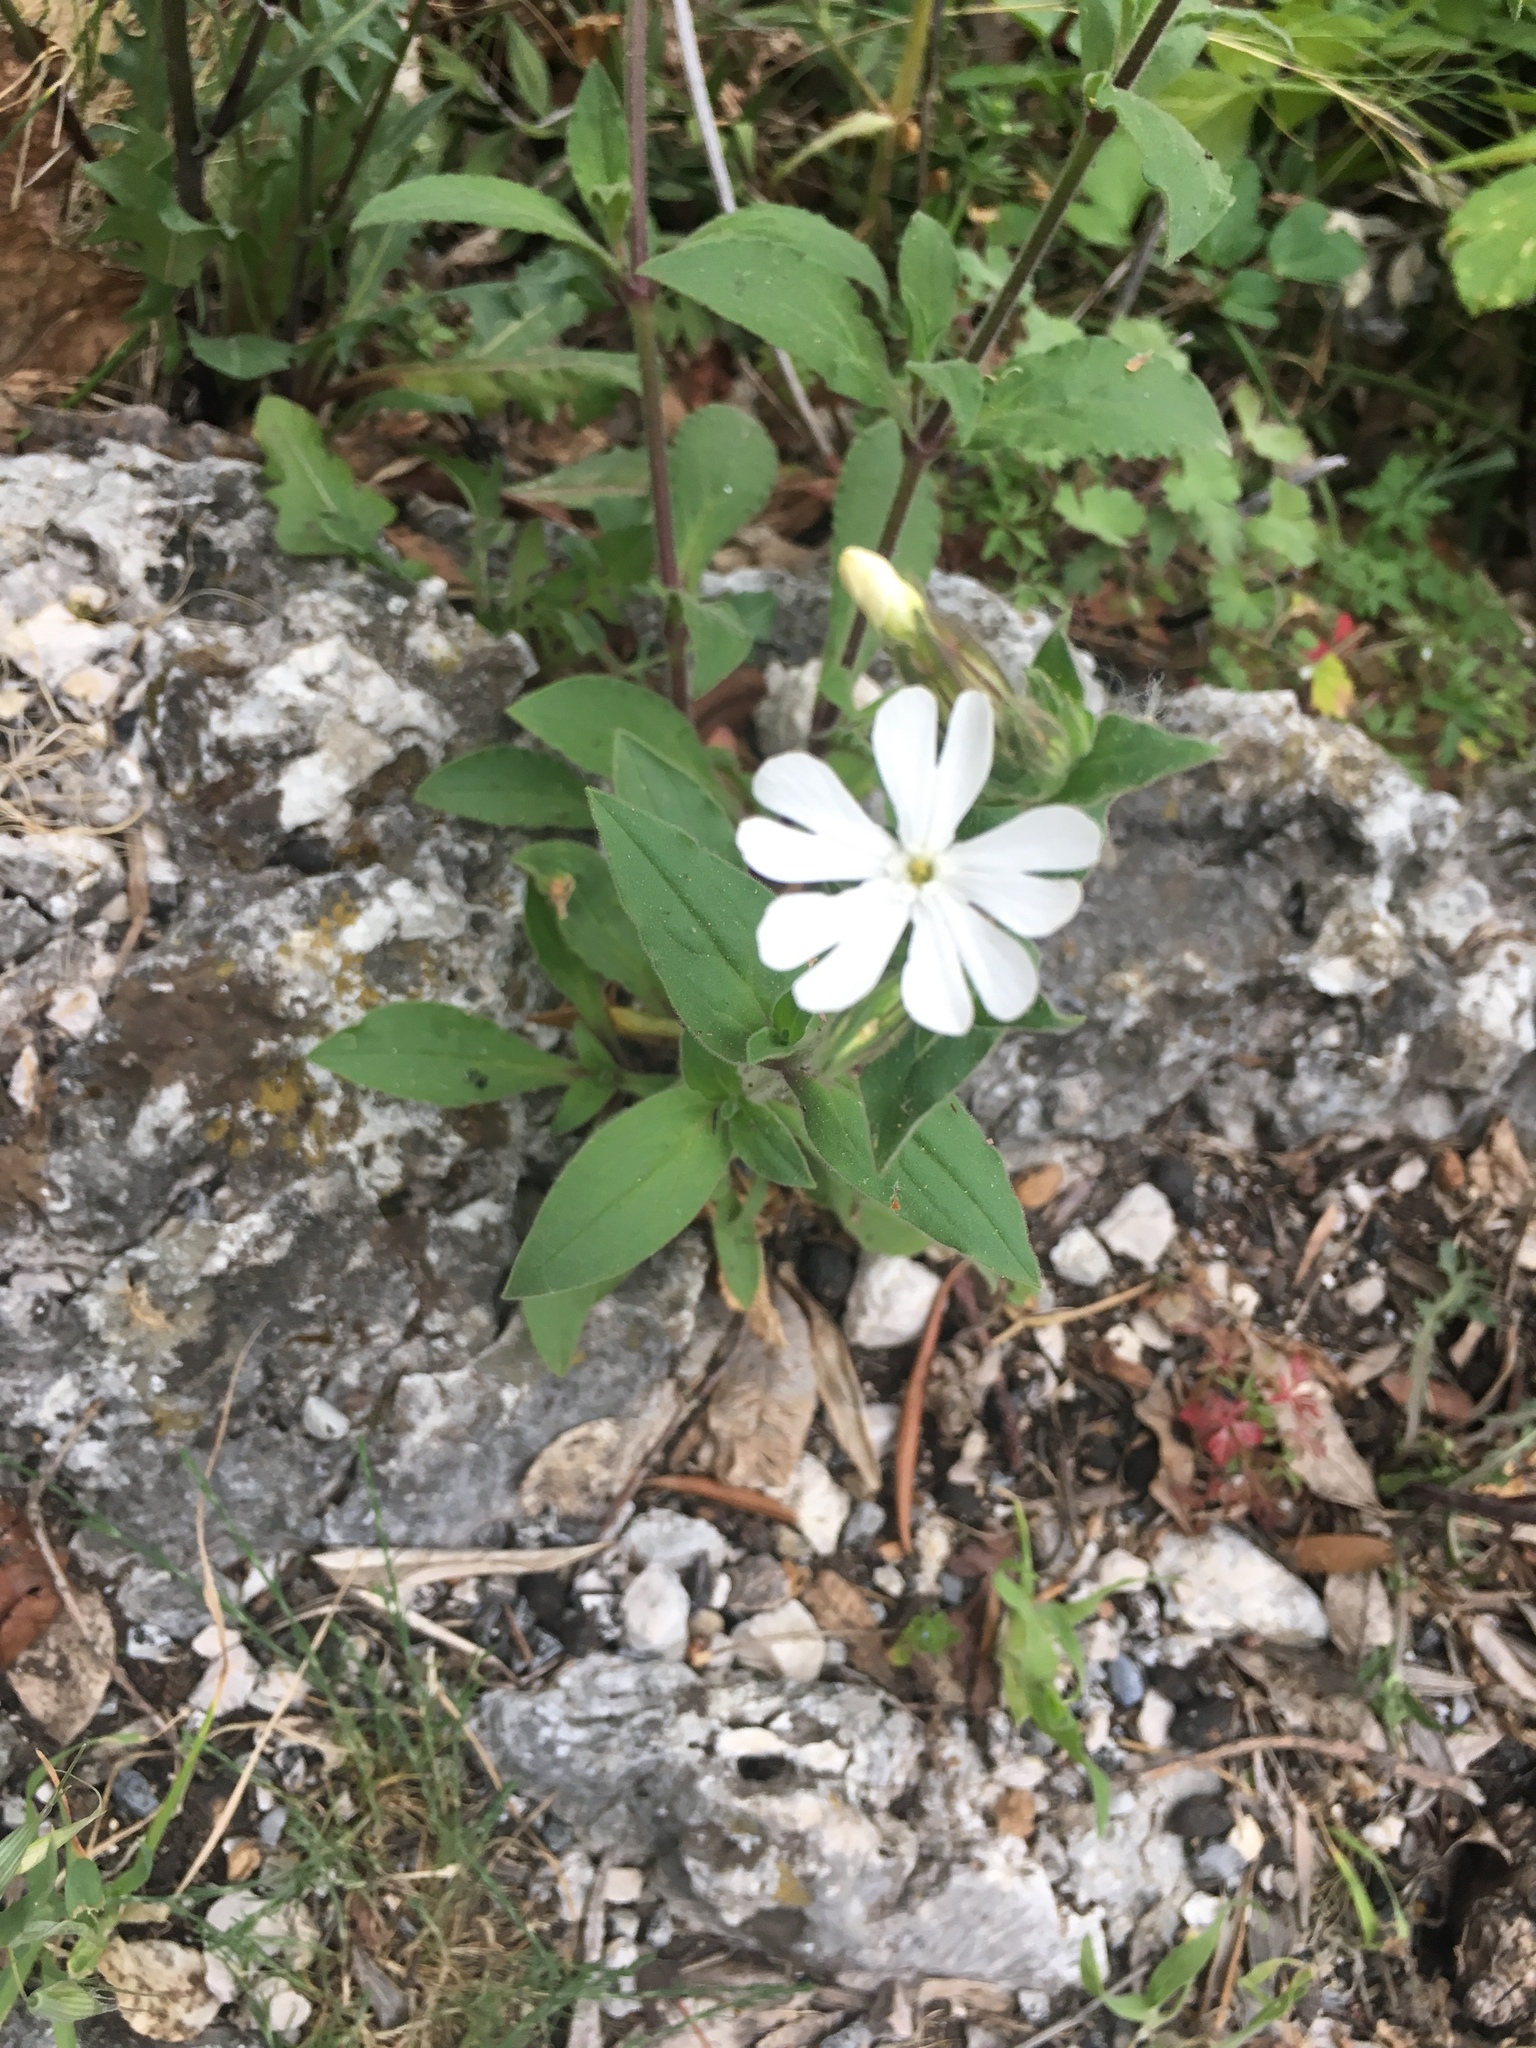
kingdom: Plantae
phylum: Tracheophyta
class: Magnoliopsida
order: Caryophyllales
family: Caryophyllaceae
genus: Silene
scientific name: Silene latifolia
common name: White campion
